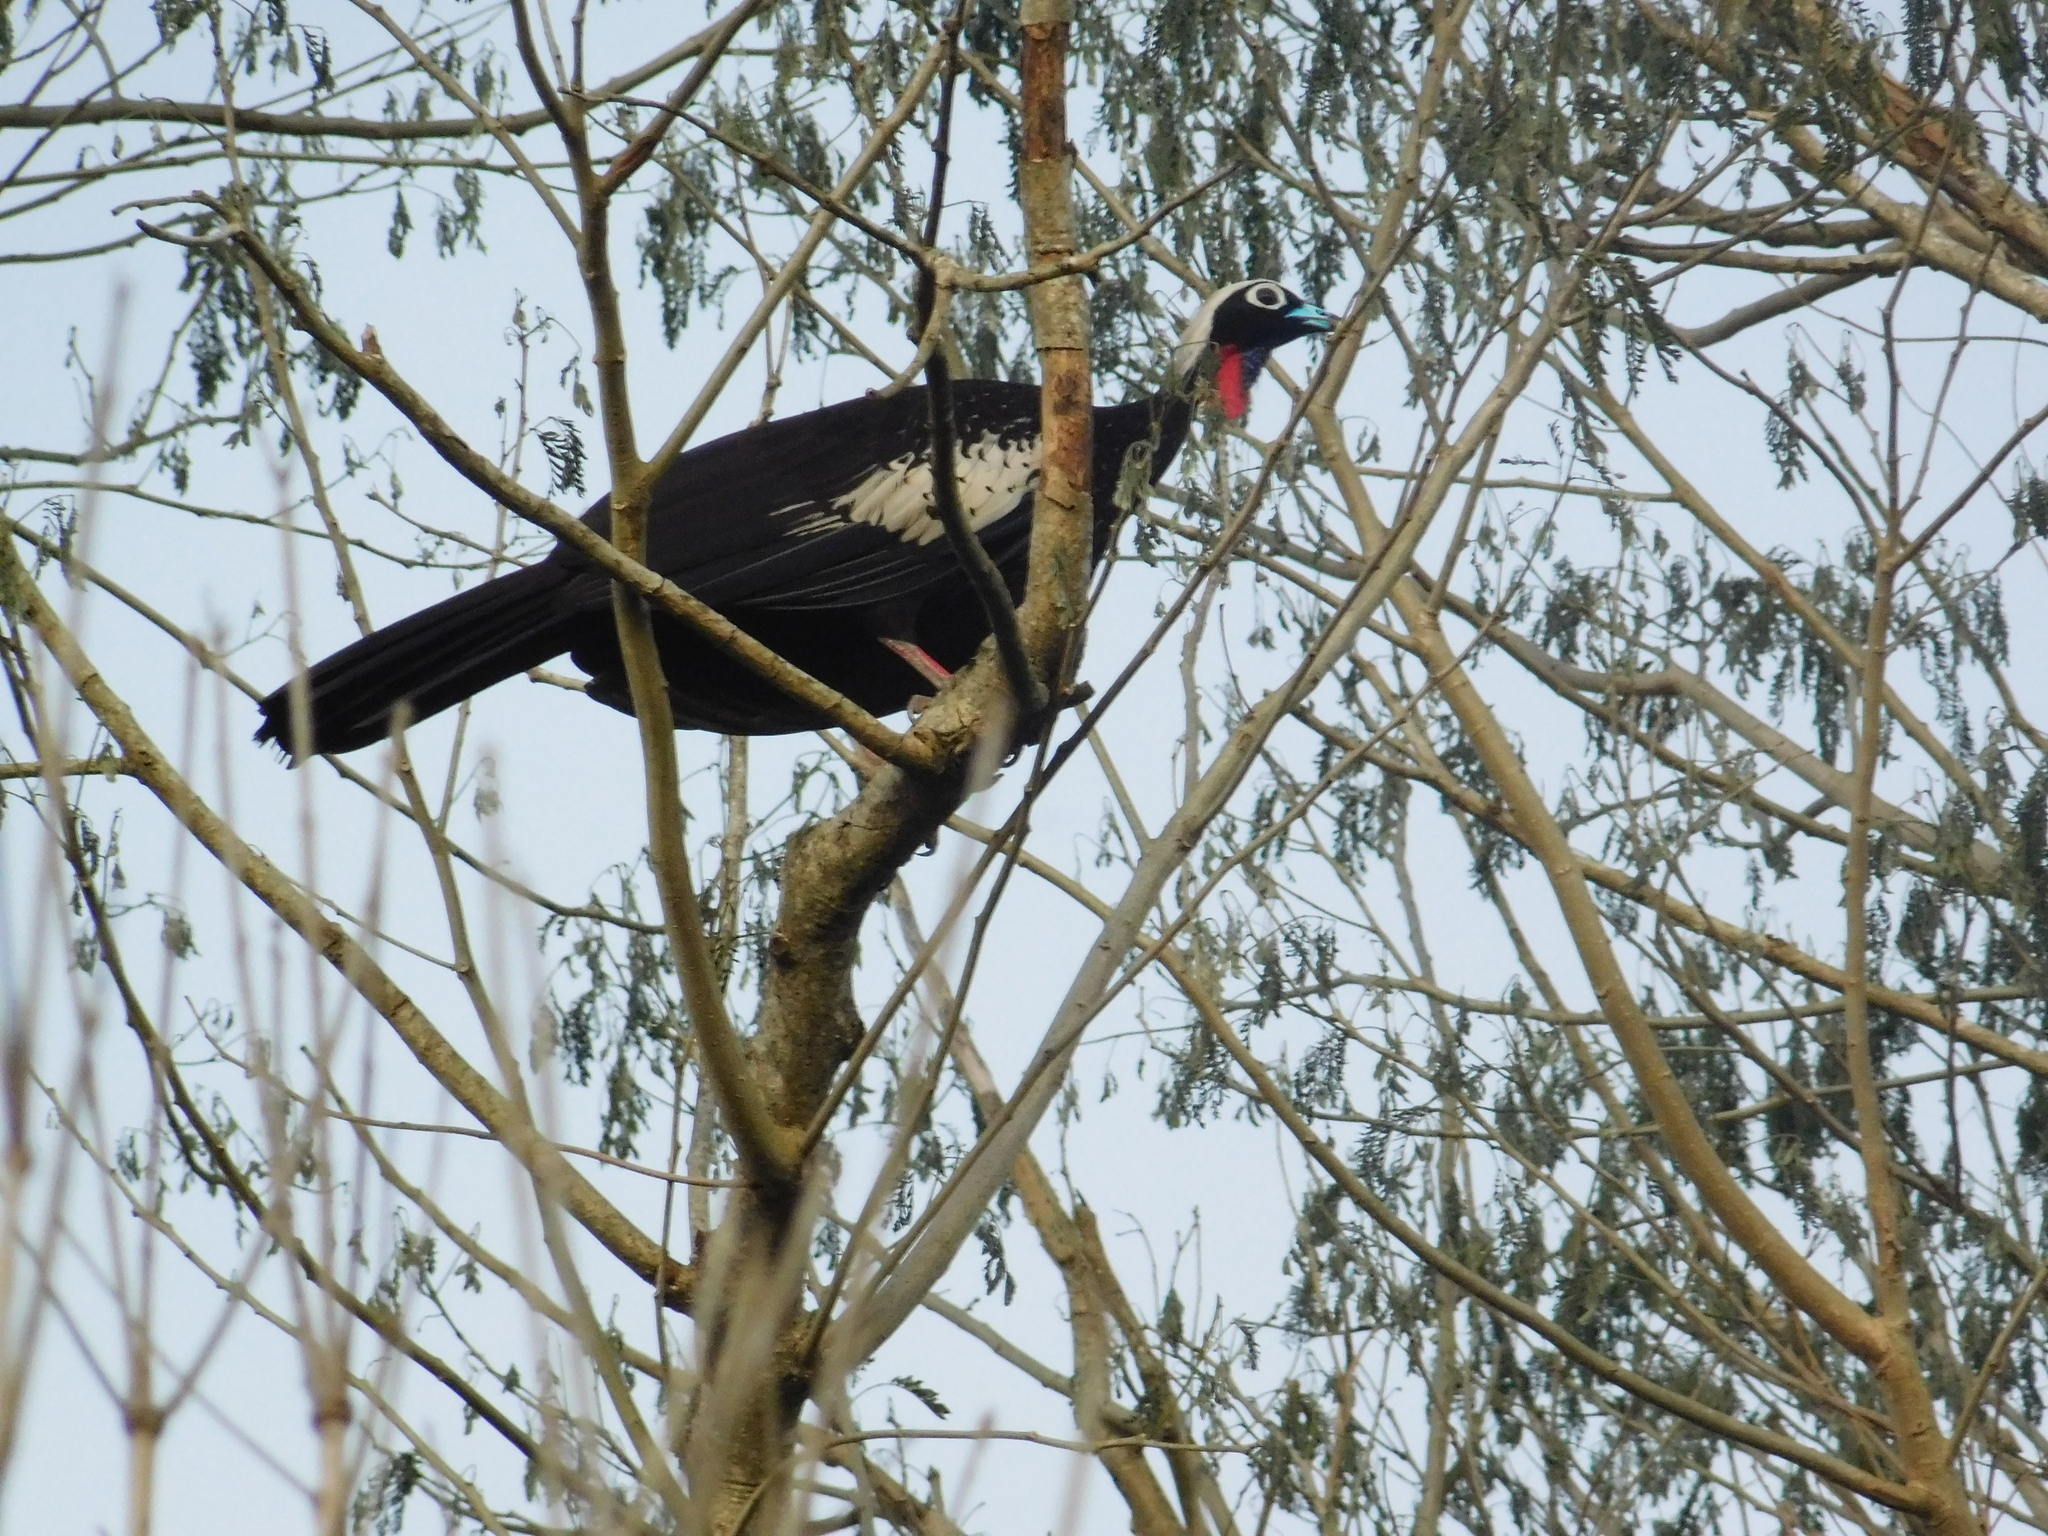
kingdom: Animalia
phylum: Chordata
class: Aves
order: Galliformes
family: Cracidae
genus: Pipile
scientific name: Pipile jacutinga
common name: Black-fronted piping-guan
